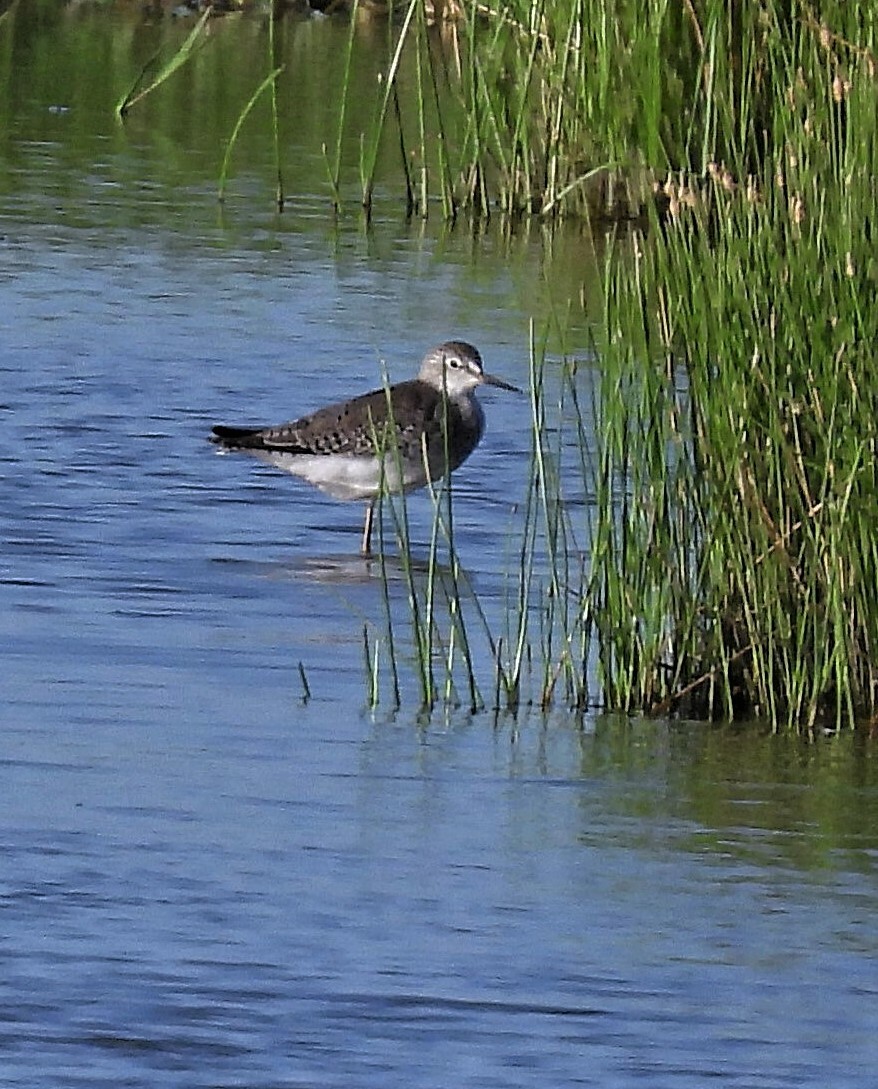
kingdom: Animalia
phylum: Chordata
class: Aves
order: Charadriiformes
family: Scolopacidae
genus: Tringa
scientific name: Tringa solitaria
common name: Solitary sandpiper
